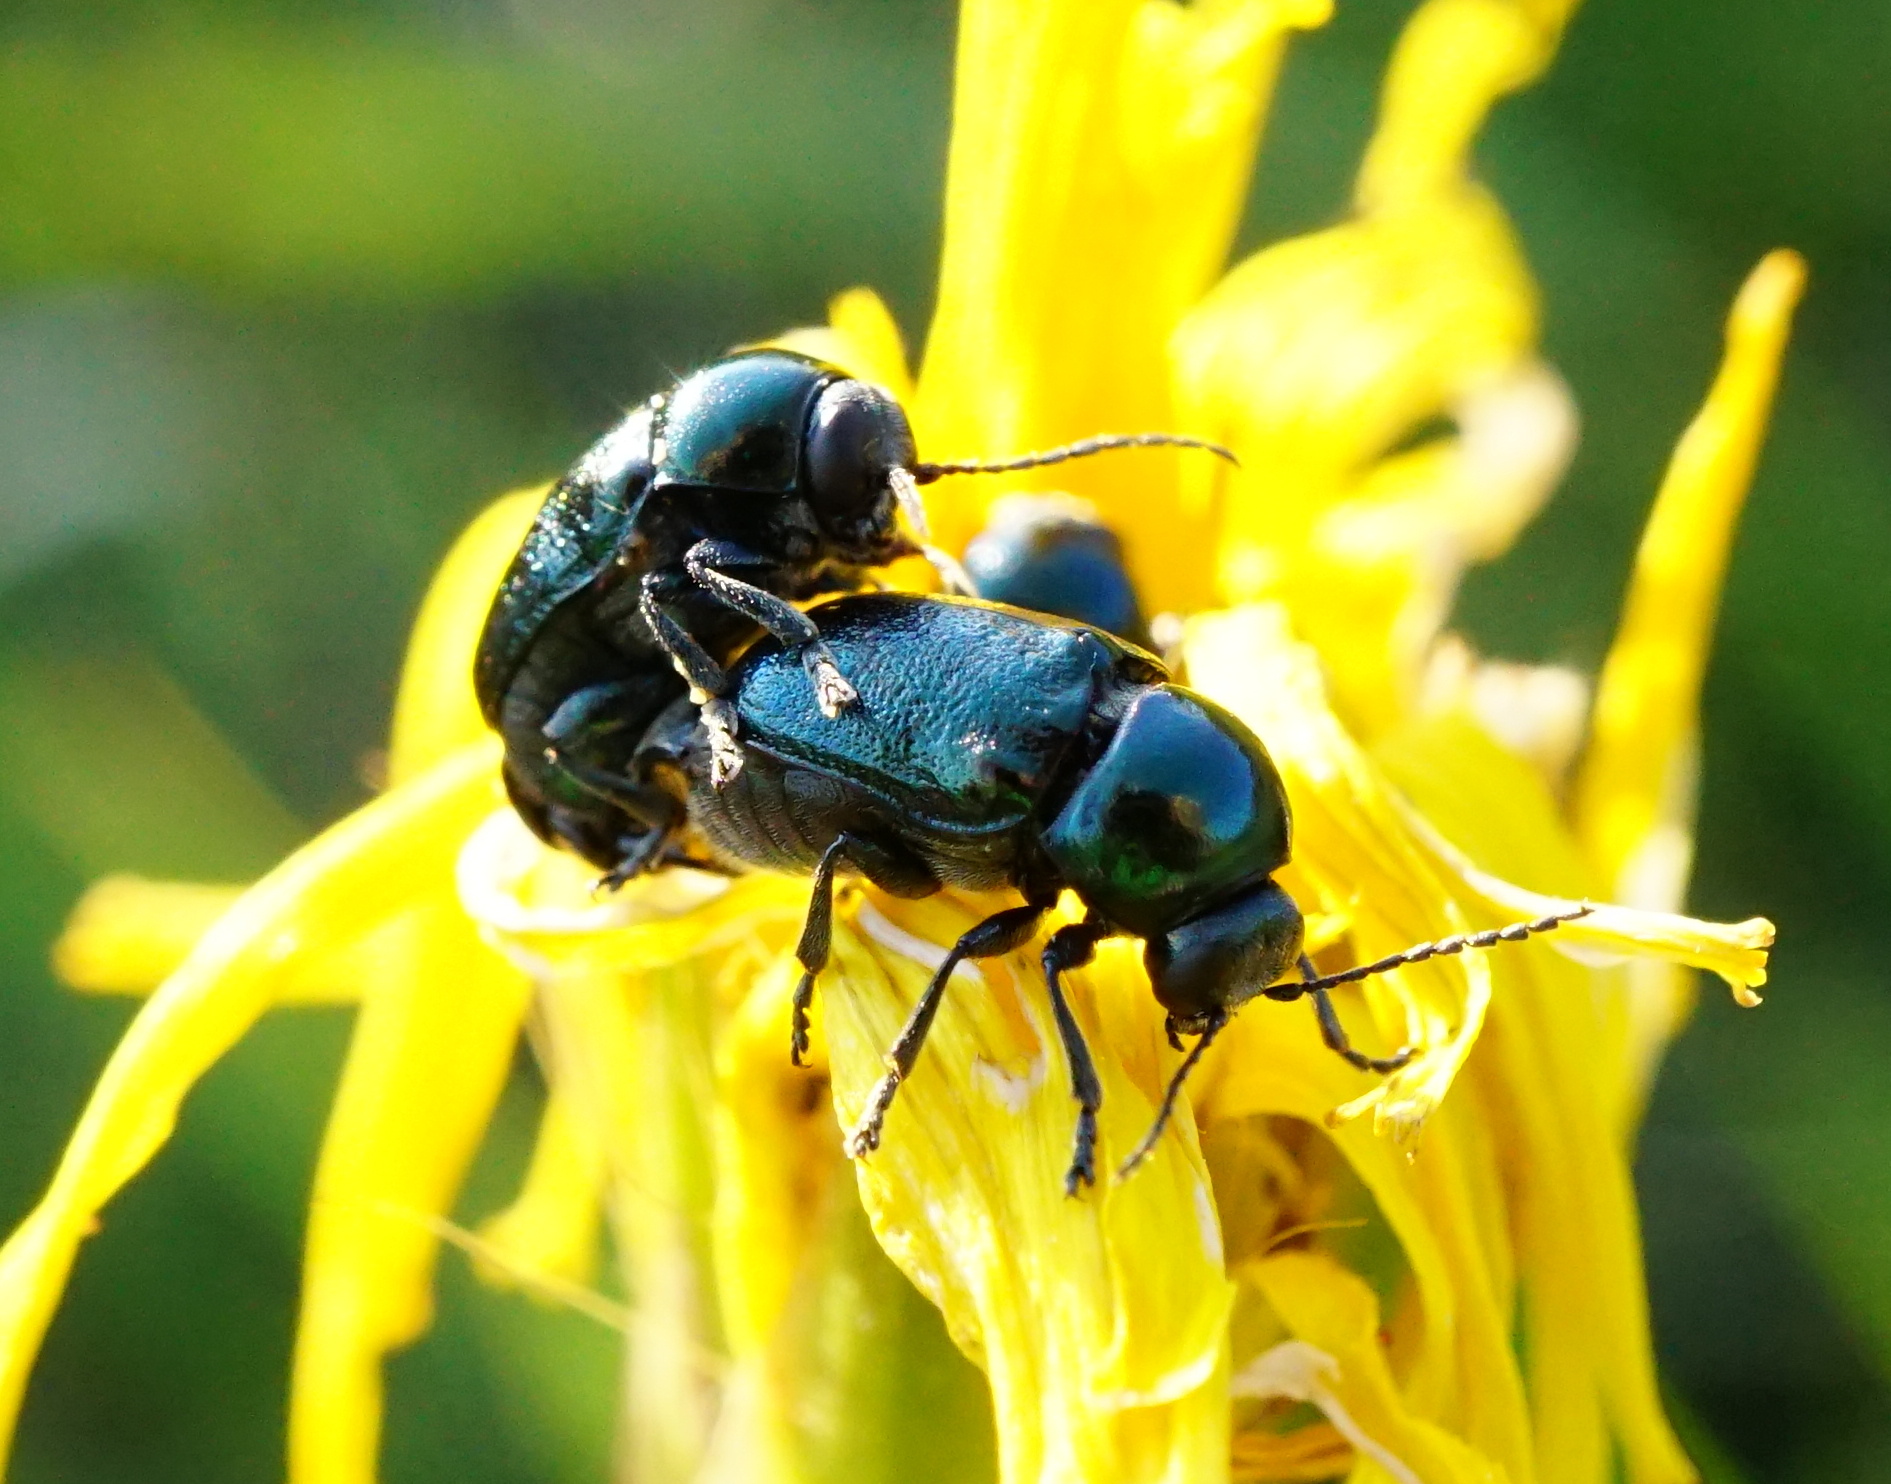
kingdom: Animalia
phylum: Arthropoda
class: Insecta
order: Coleoptera
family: Chrysomelidae
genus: Cryptocephalus
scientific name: Cryptocephalus violaceus
